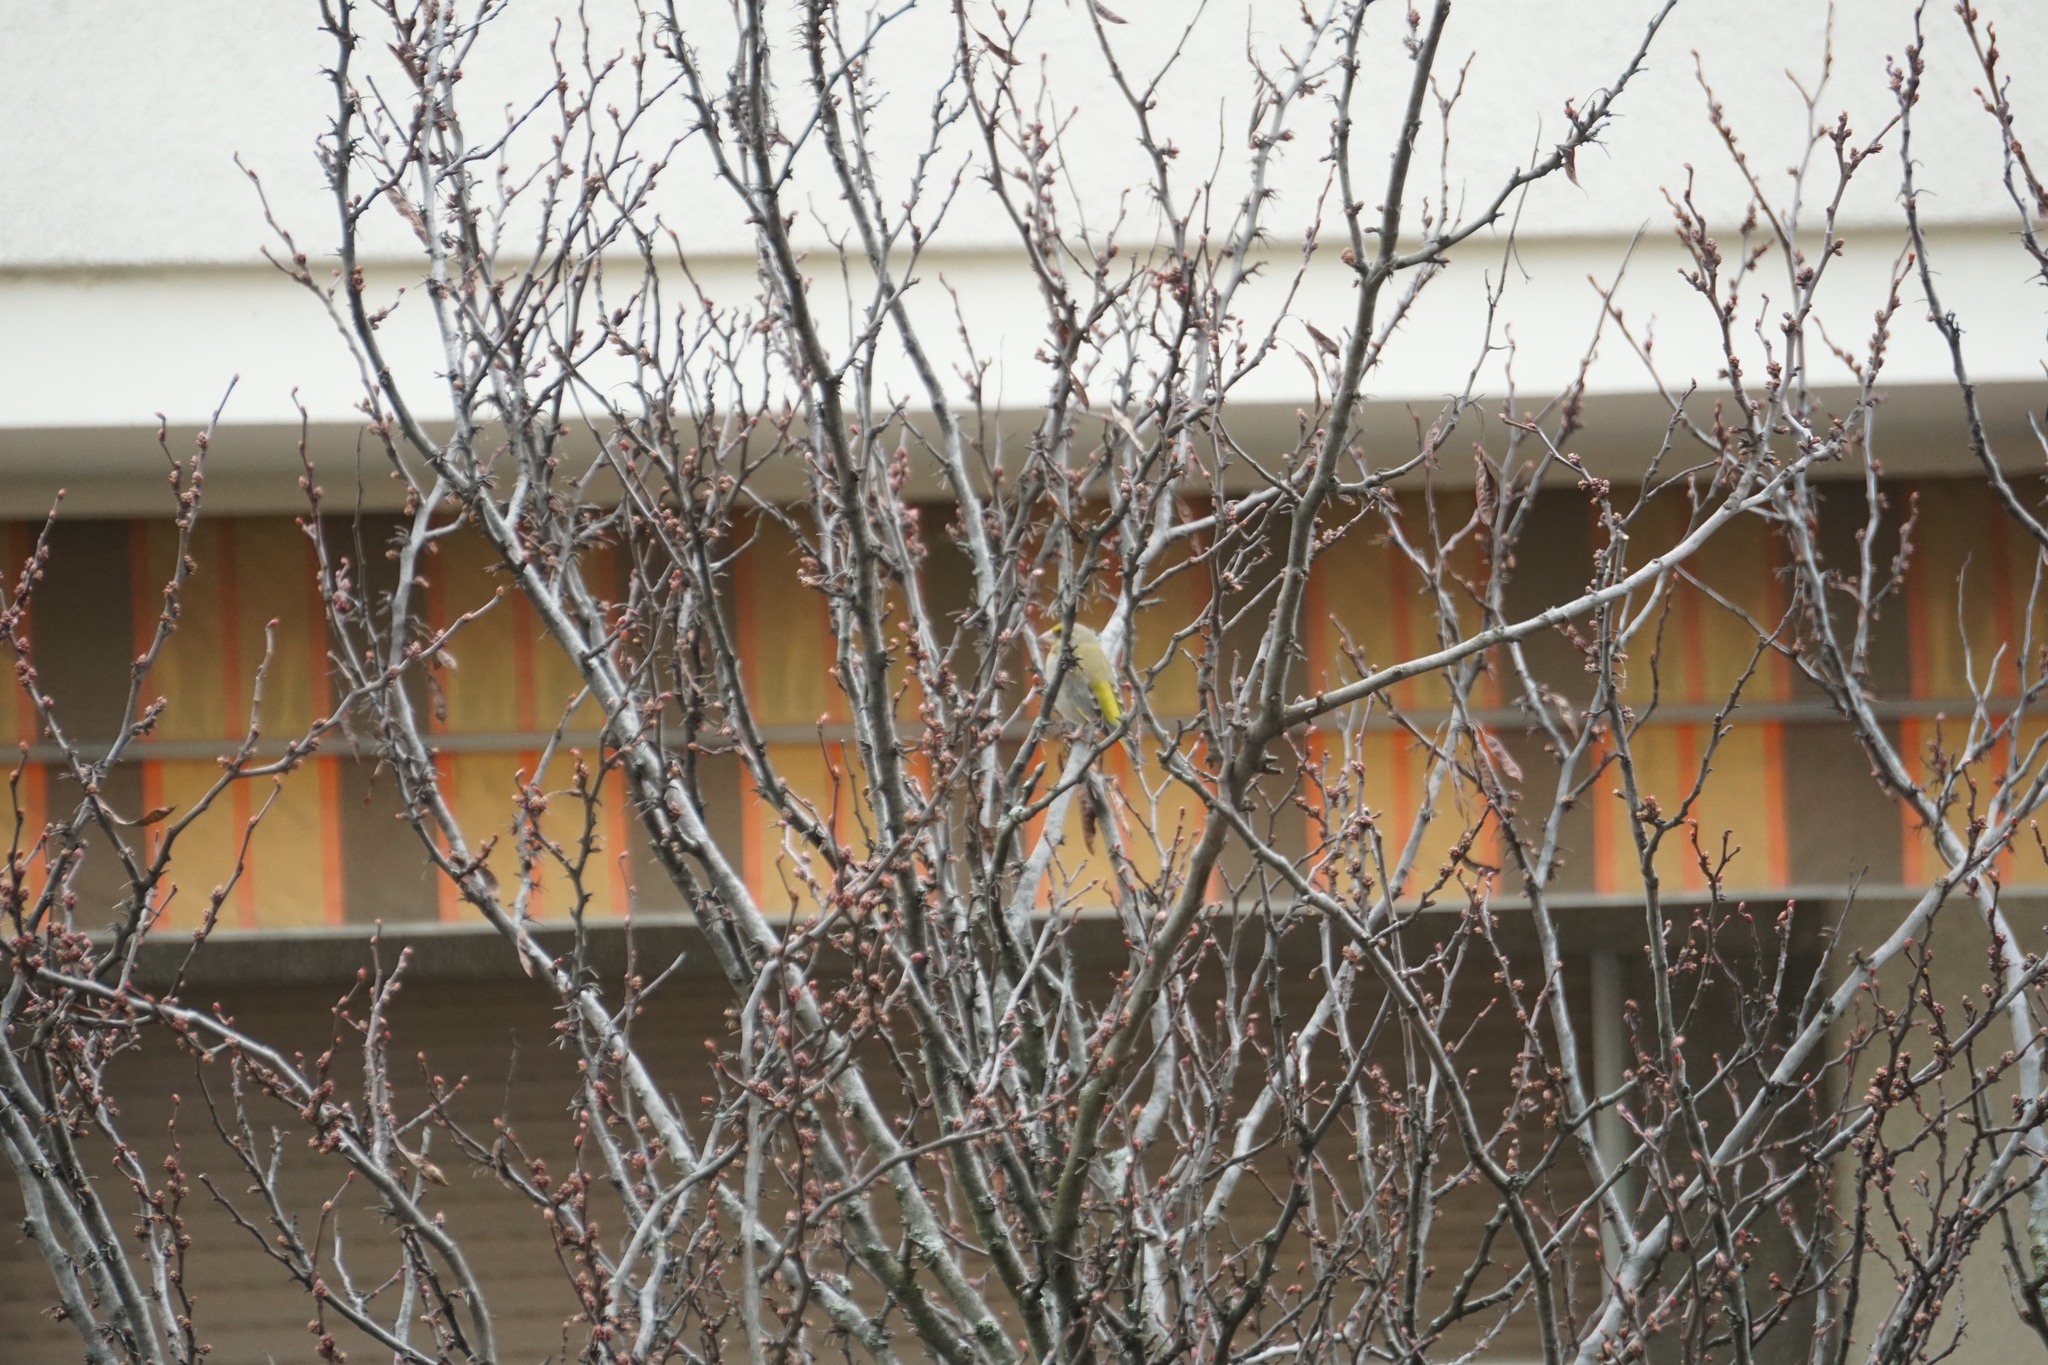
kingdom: Plantae
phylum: Tracheophyta
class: Liliopsida
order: Poales
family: Poaceae
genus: Chloris
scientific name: Chloris chloris
